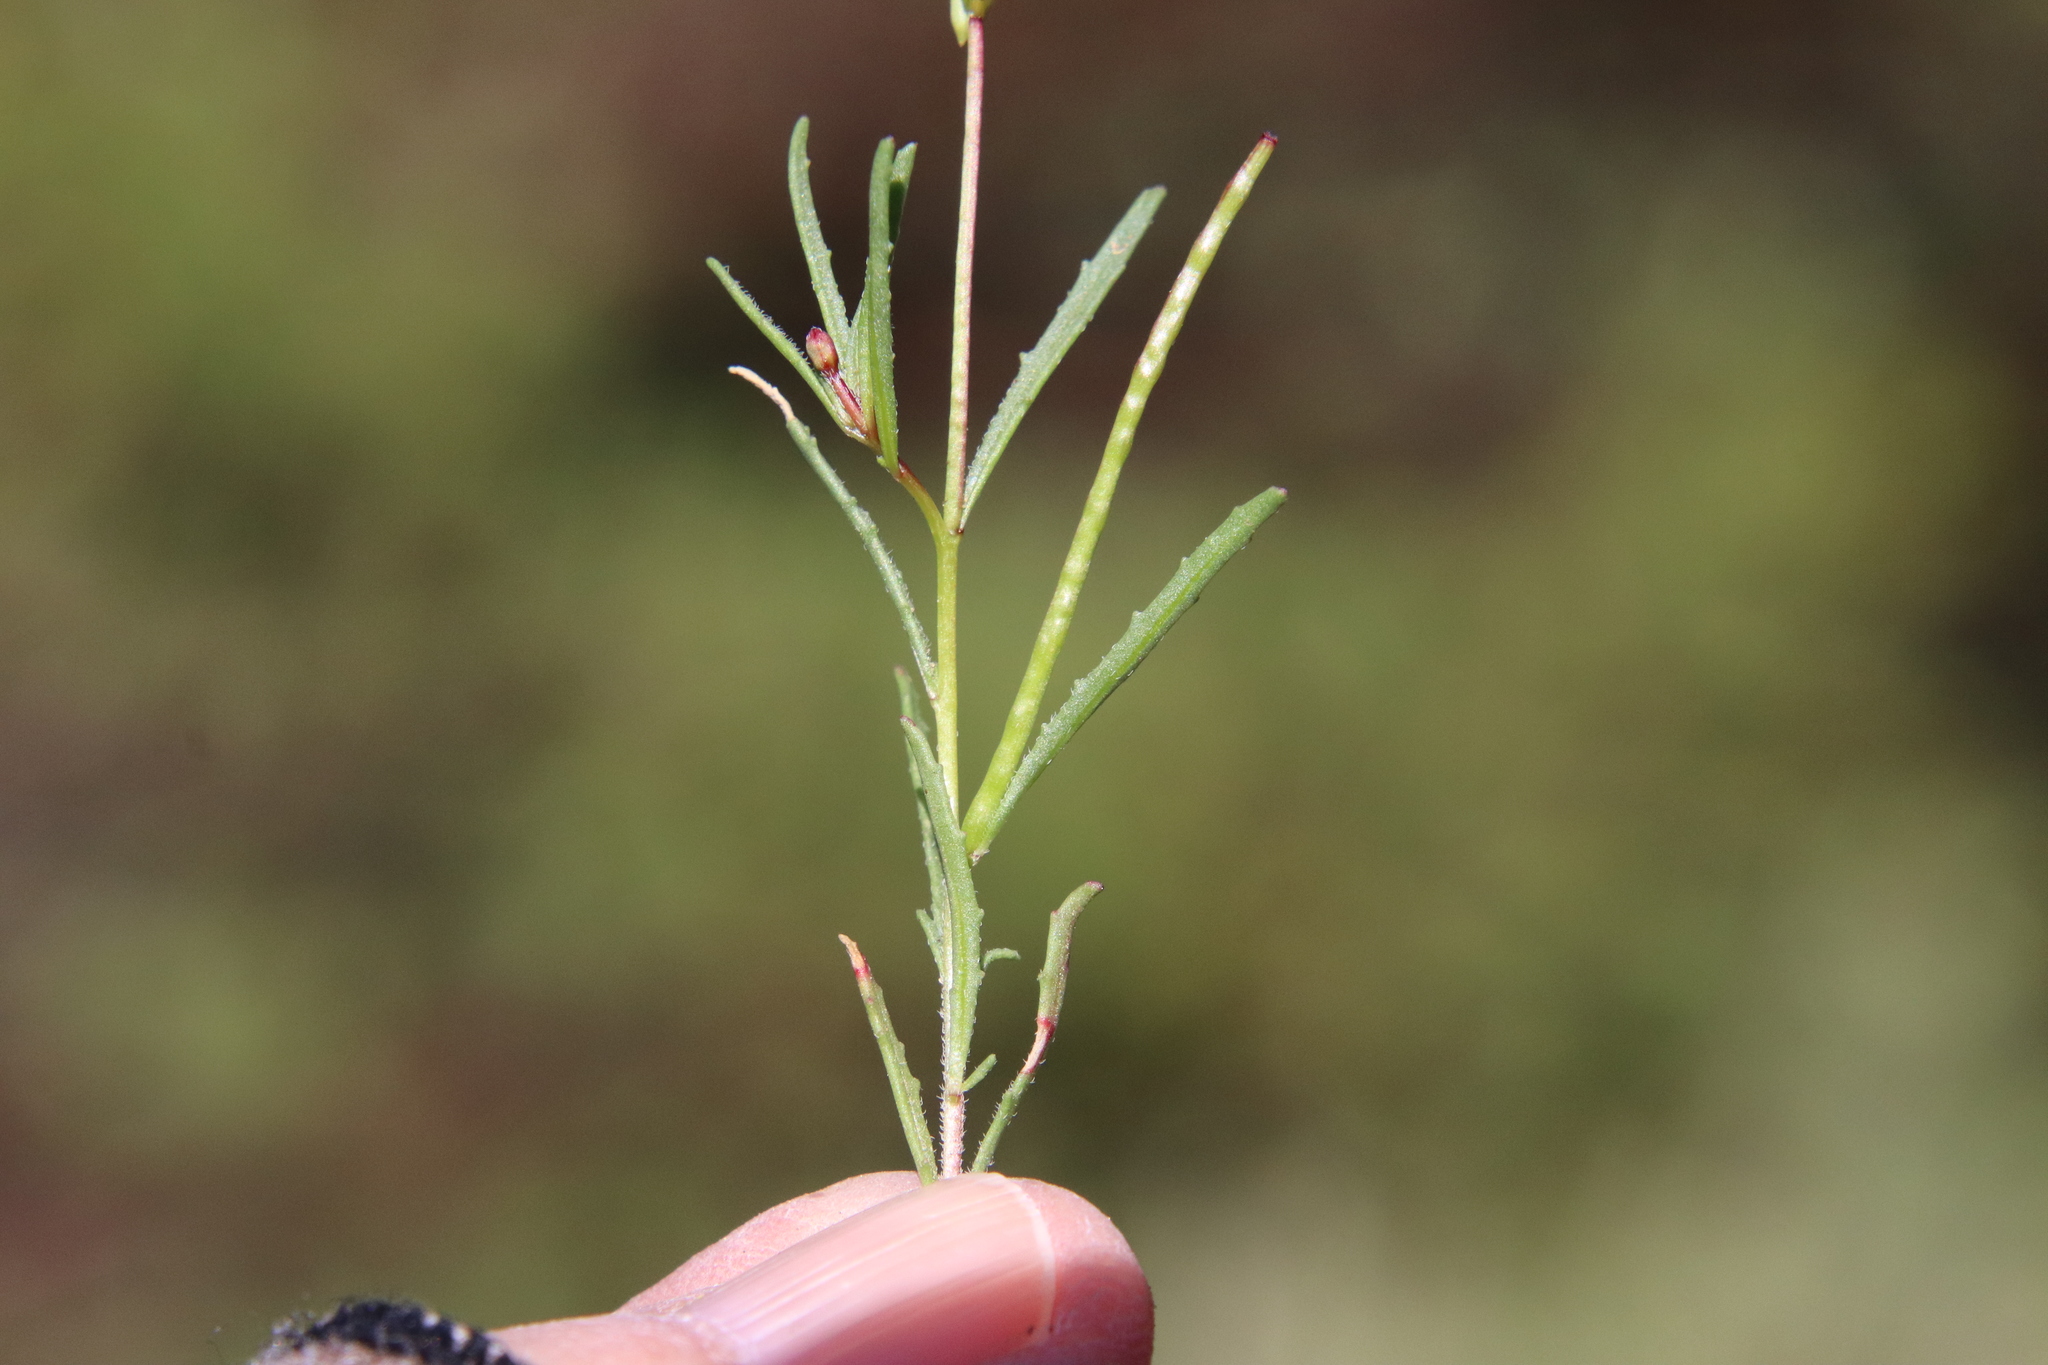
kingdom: Plantae
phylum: Tracheophyta
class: Magnoliopsida
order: Myrtales
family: Onagraceae
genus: Camissonia
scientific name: Camissonia strigulosa
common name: Contorted-primrose
